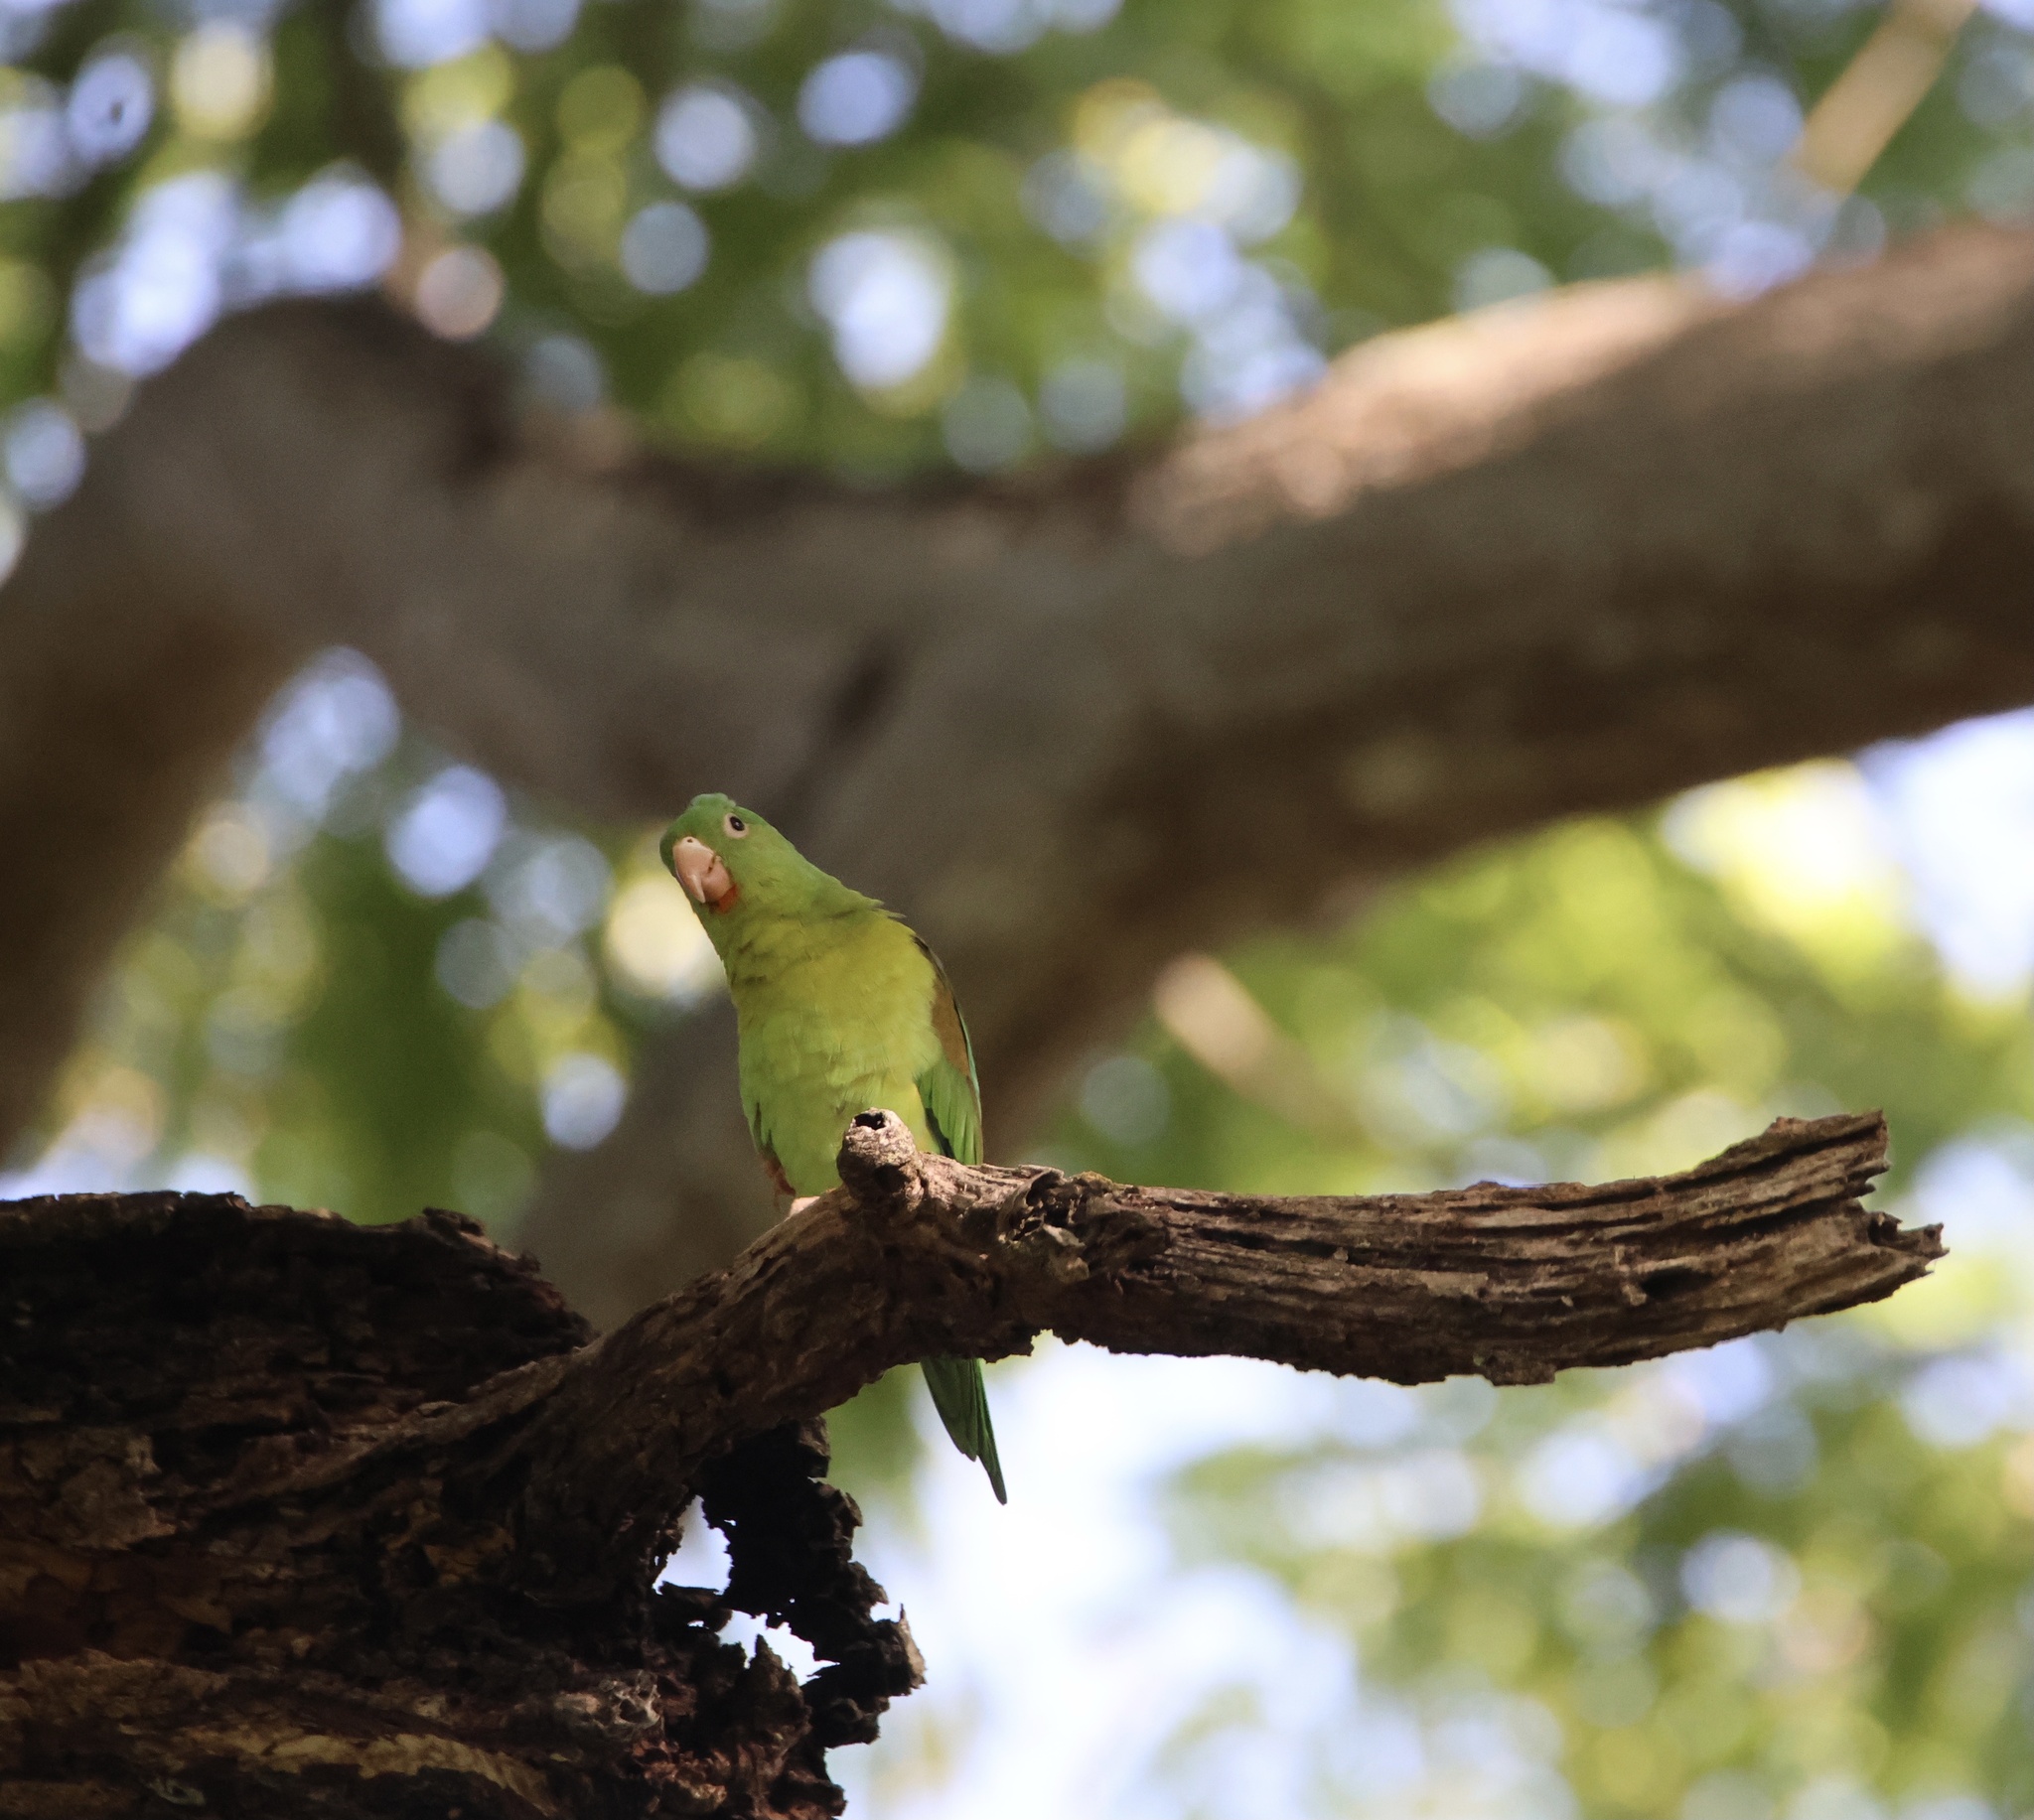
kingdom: Animalia
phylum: Chordata
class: Aves
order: Psittaciformes
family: Psittacidae
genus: Brotogeris
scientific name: Brotogeris jugularis
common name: Orange-chinned parakeet
